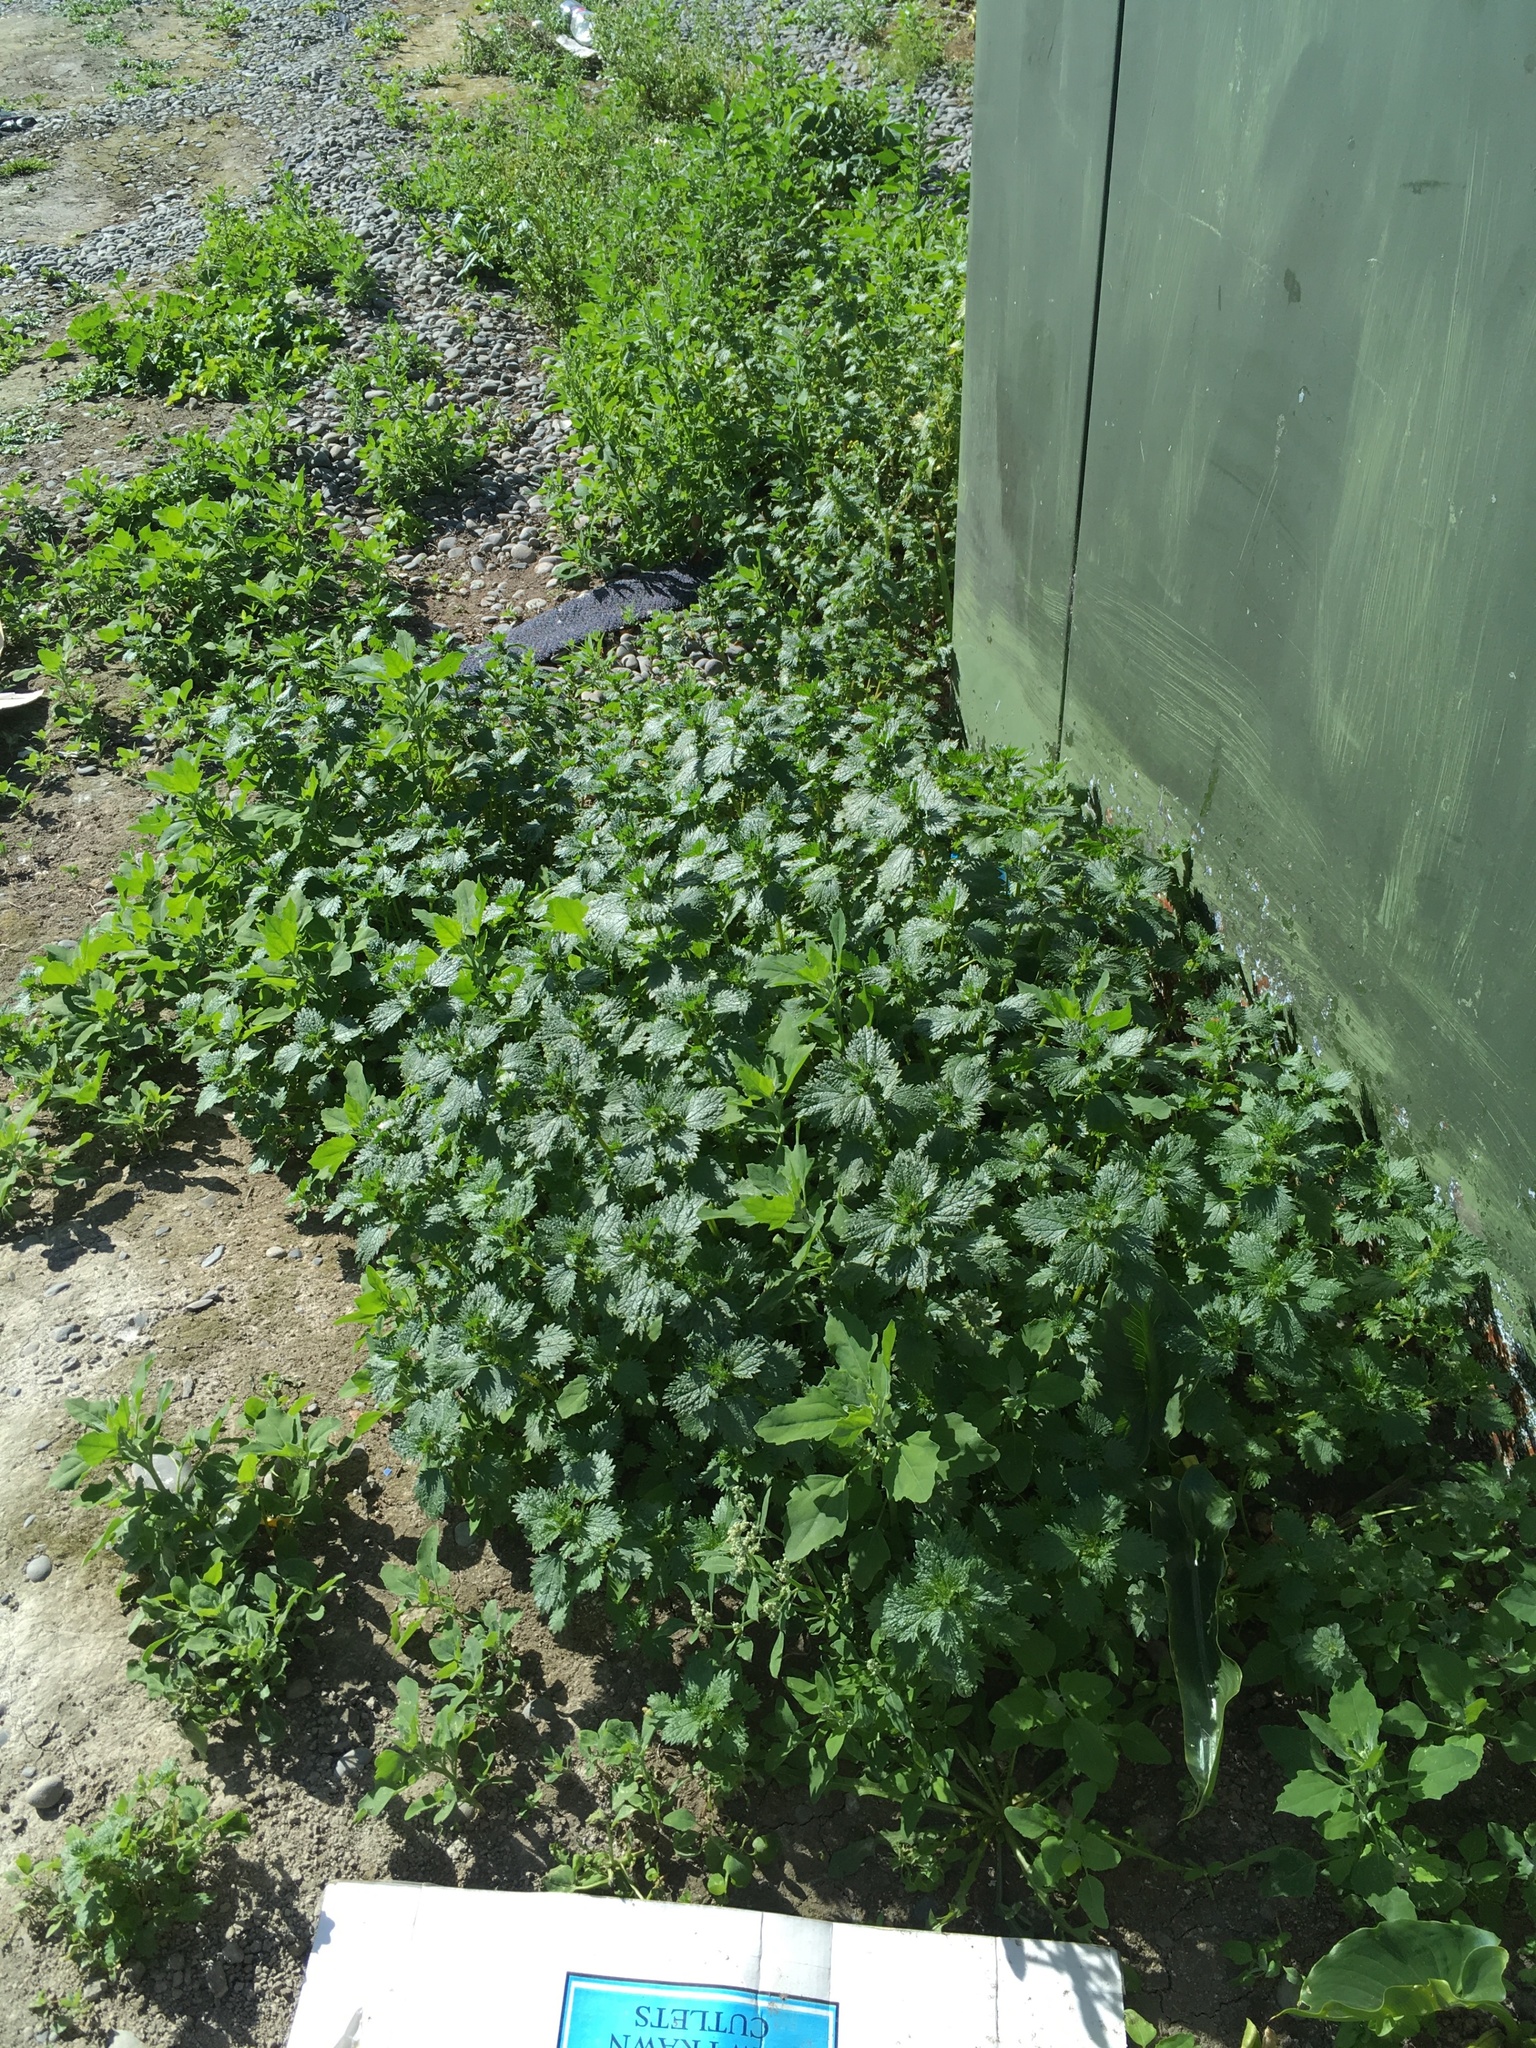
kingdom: Plantae
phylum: Tracheophyta
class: Magnoliopsida
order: Rosales
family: Urticaceae
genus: Urtica
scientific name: Urtica urens
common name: Dwarf nettle
